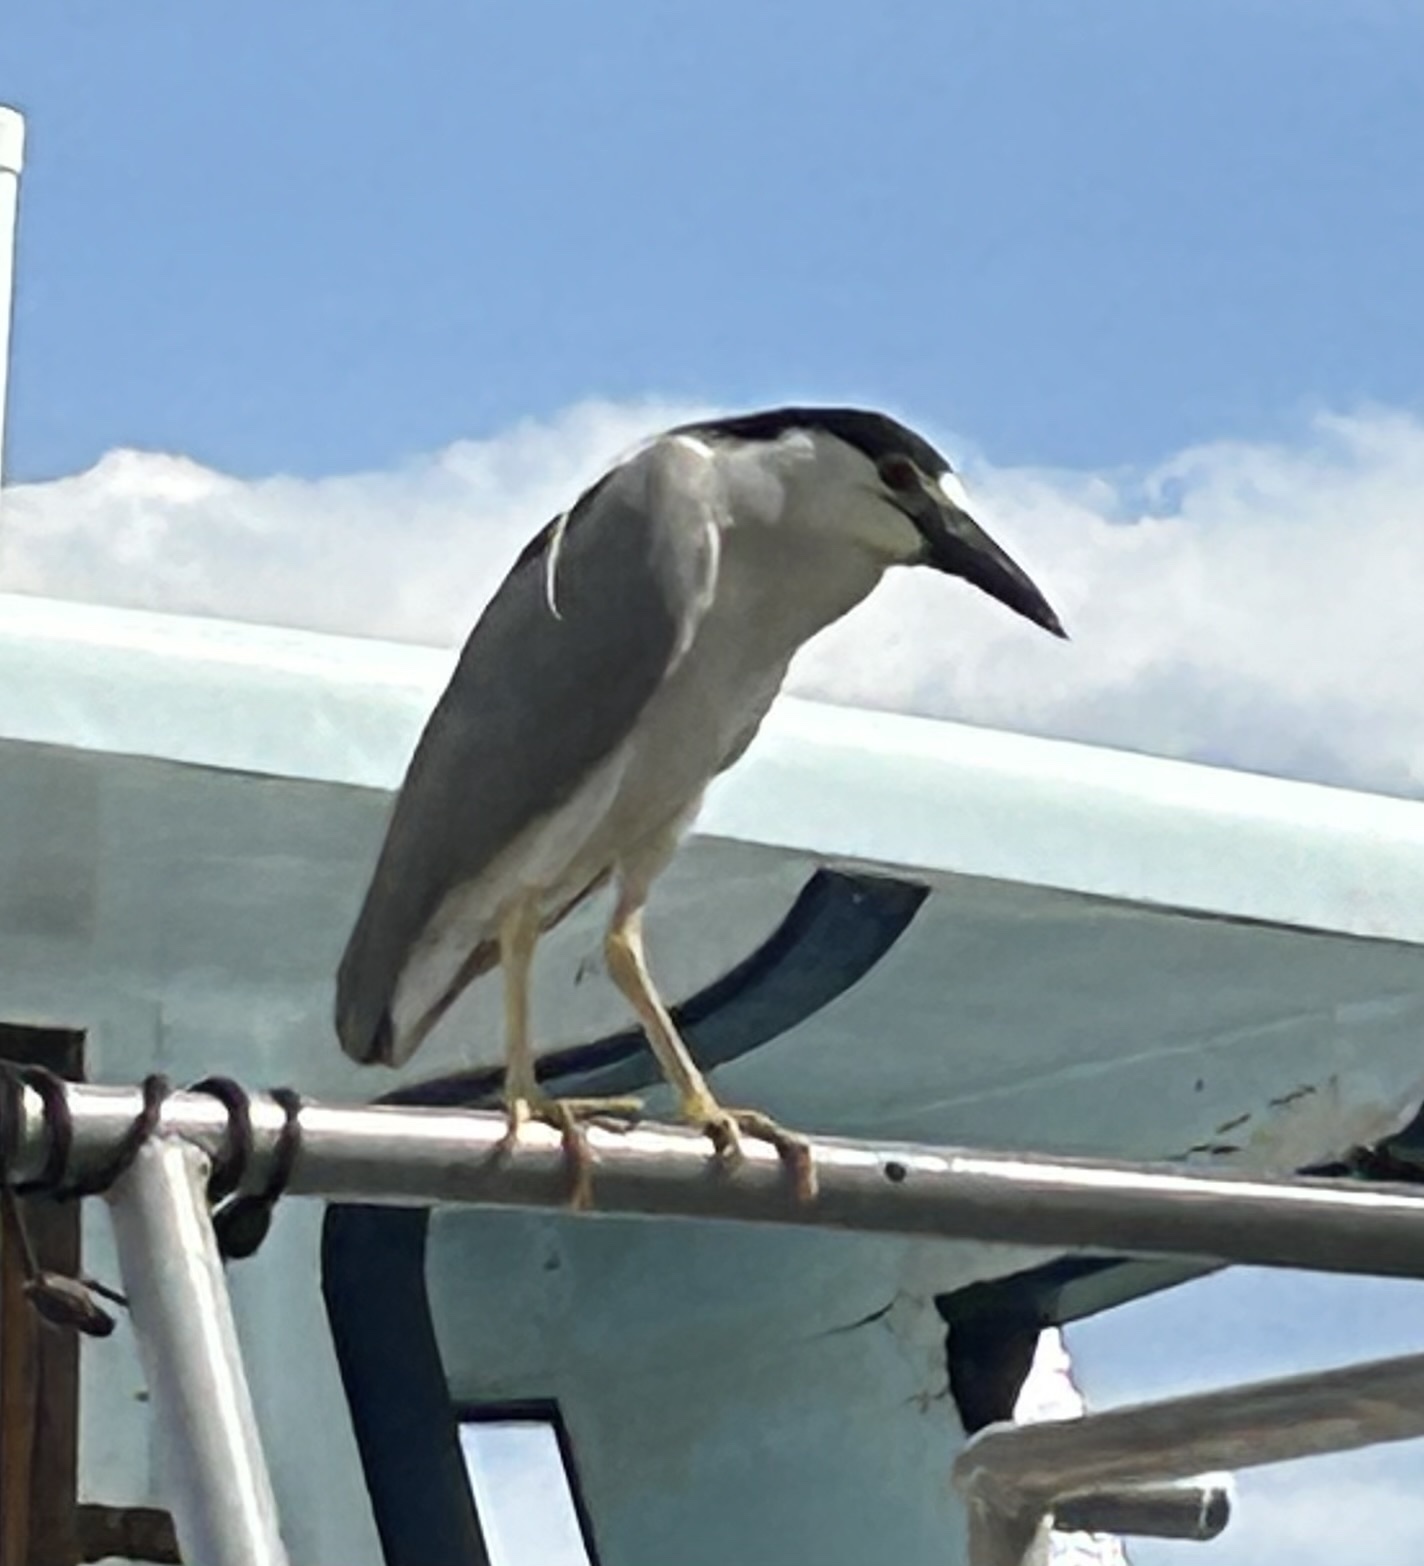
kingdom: Animalia
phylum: Chordata
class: Aves
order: Pelecaniformes
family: Ardeidae
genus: Nycticorax
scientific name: Nycticorax nycticorax
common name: Black-crowned night heron
